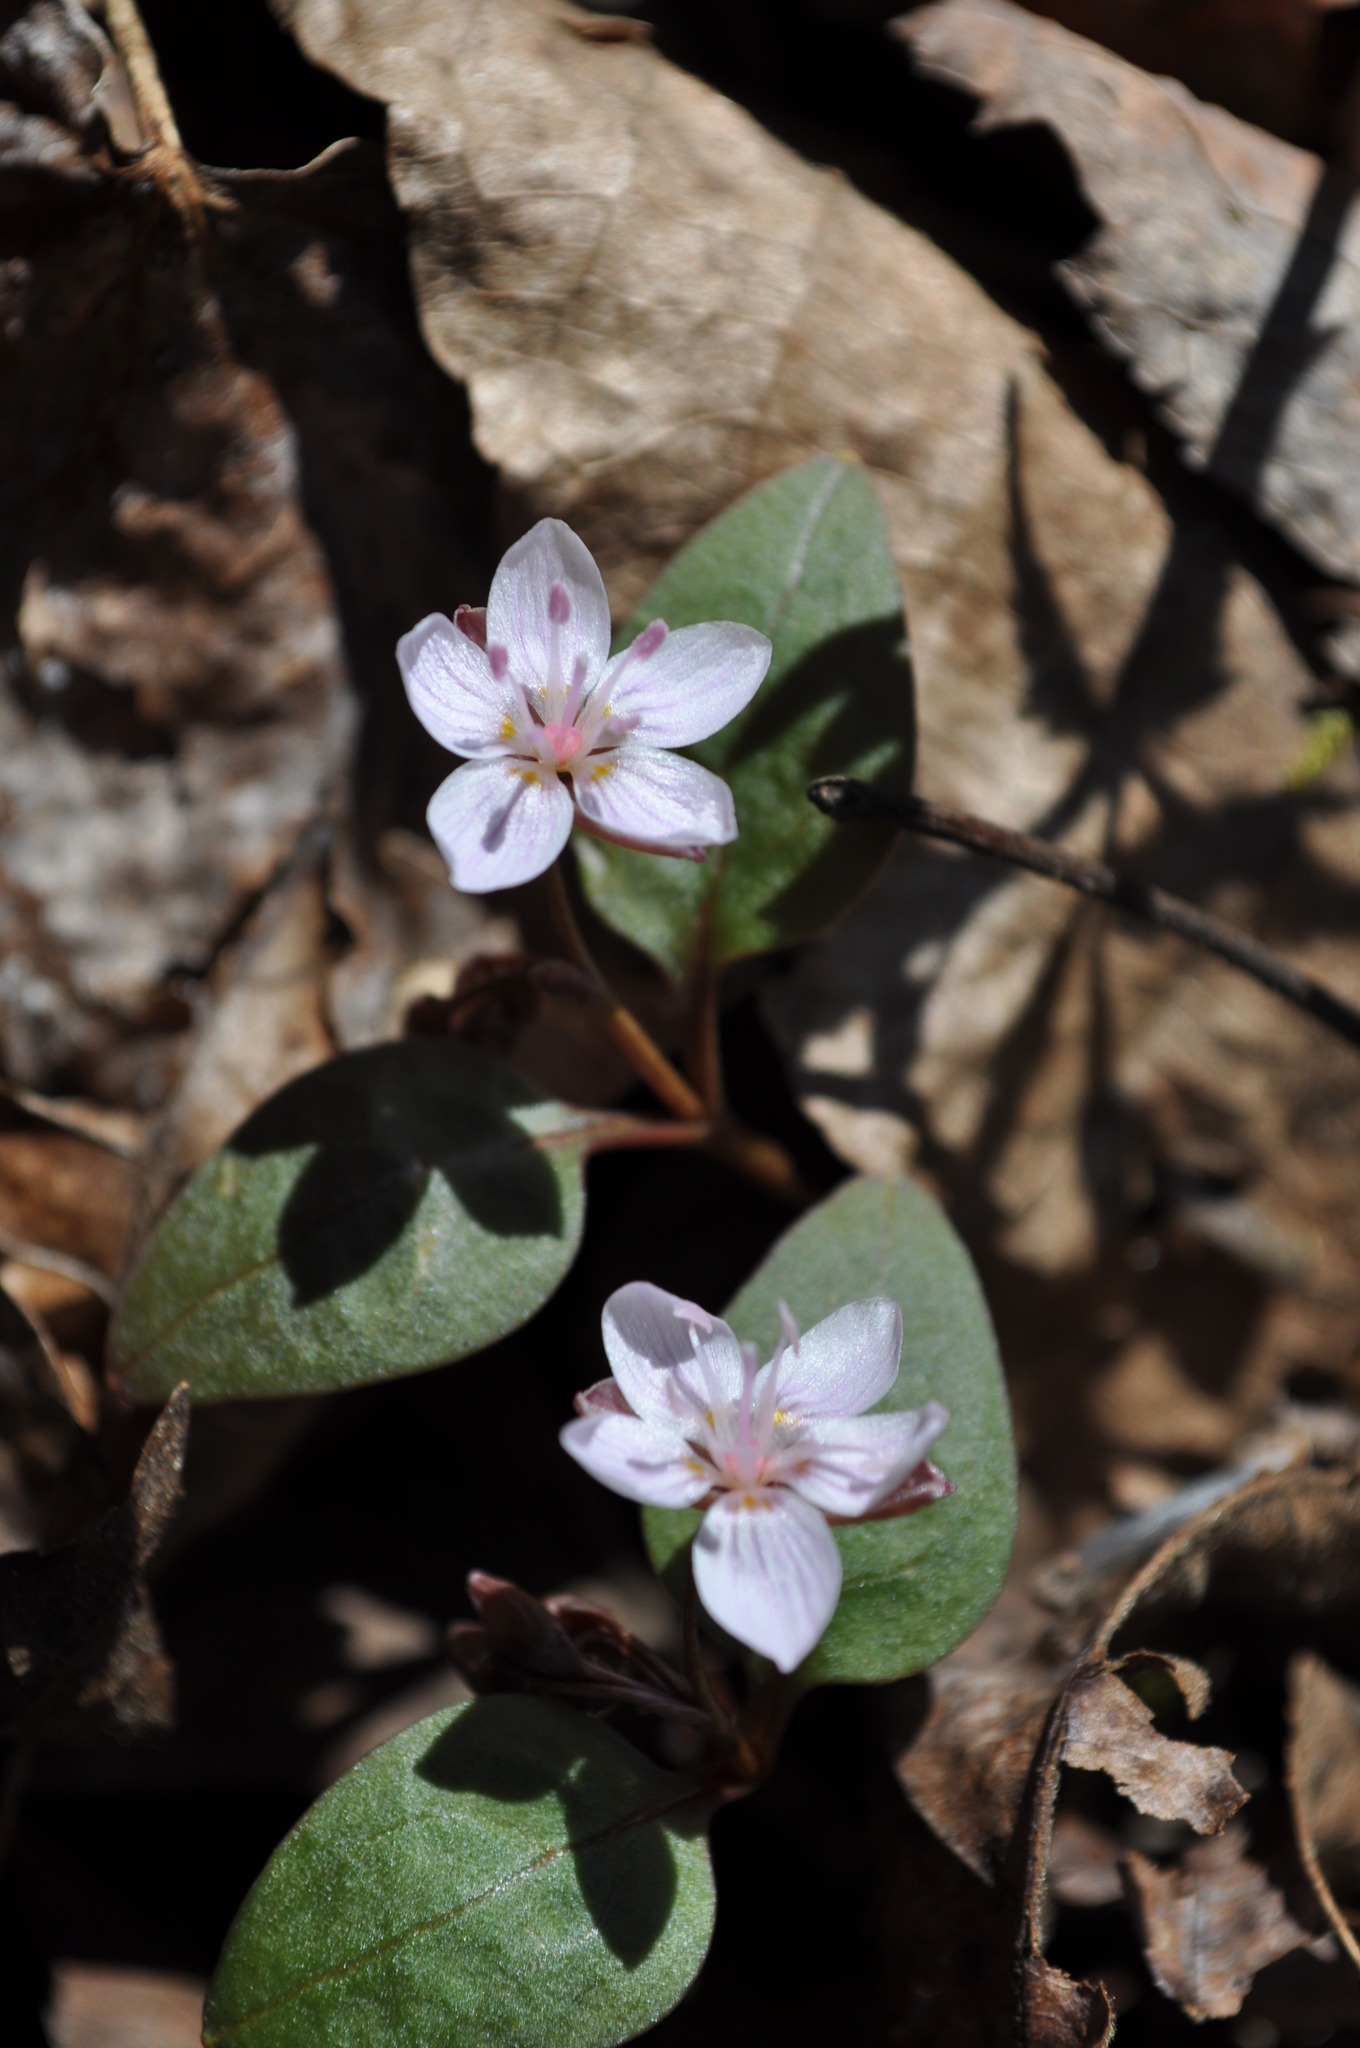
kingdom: Plantae
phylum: Tracheophyta
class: Magnoliopsida
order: Caryophyllales
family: Montiaceae
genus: Claytonia
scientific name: Claytonia caroliniana
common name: Carolina spring beauty
